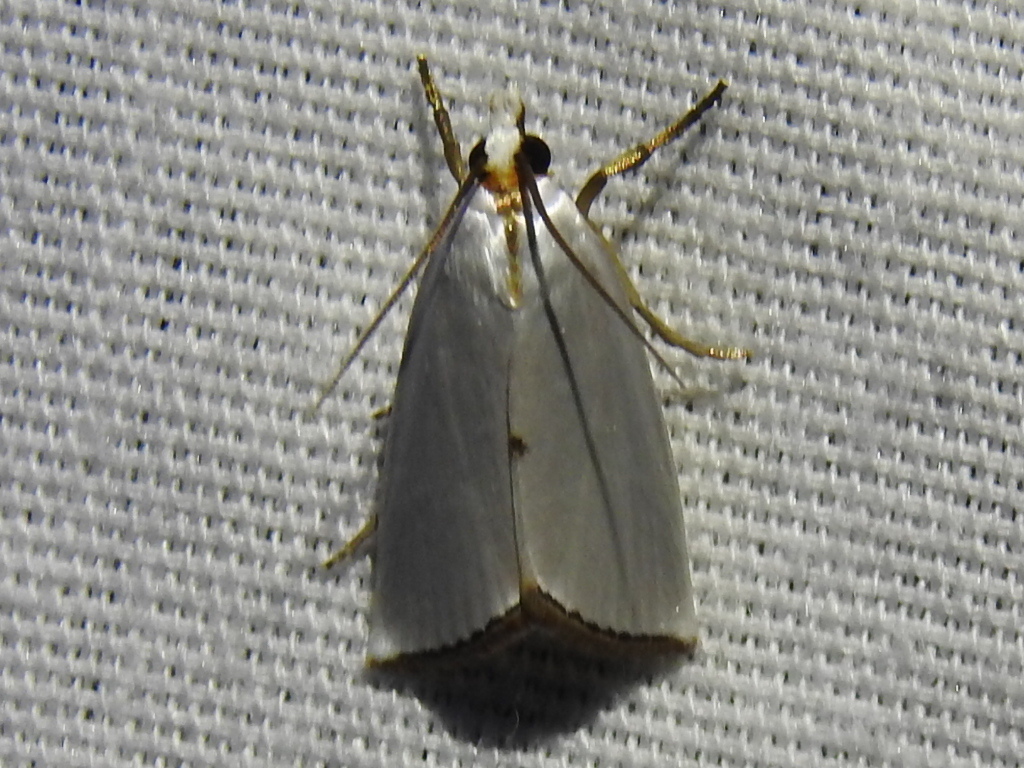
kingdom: Animalia
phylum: Arthropoda
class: Insecta
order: Lepidoptera
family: Crambidae
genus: Argyria
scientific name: Argyria nivalis
